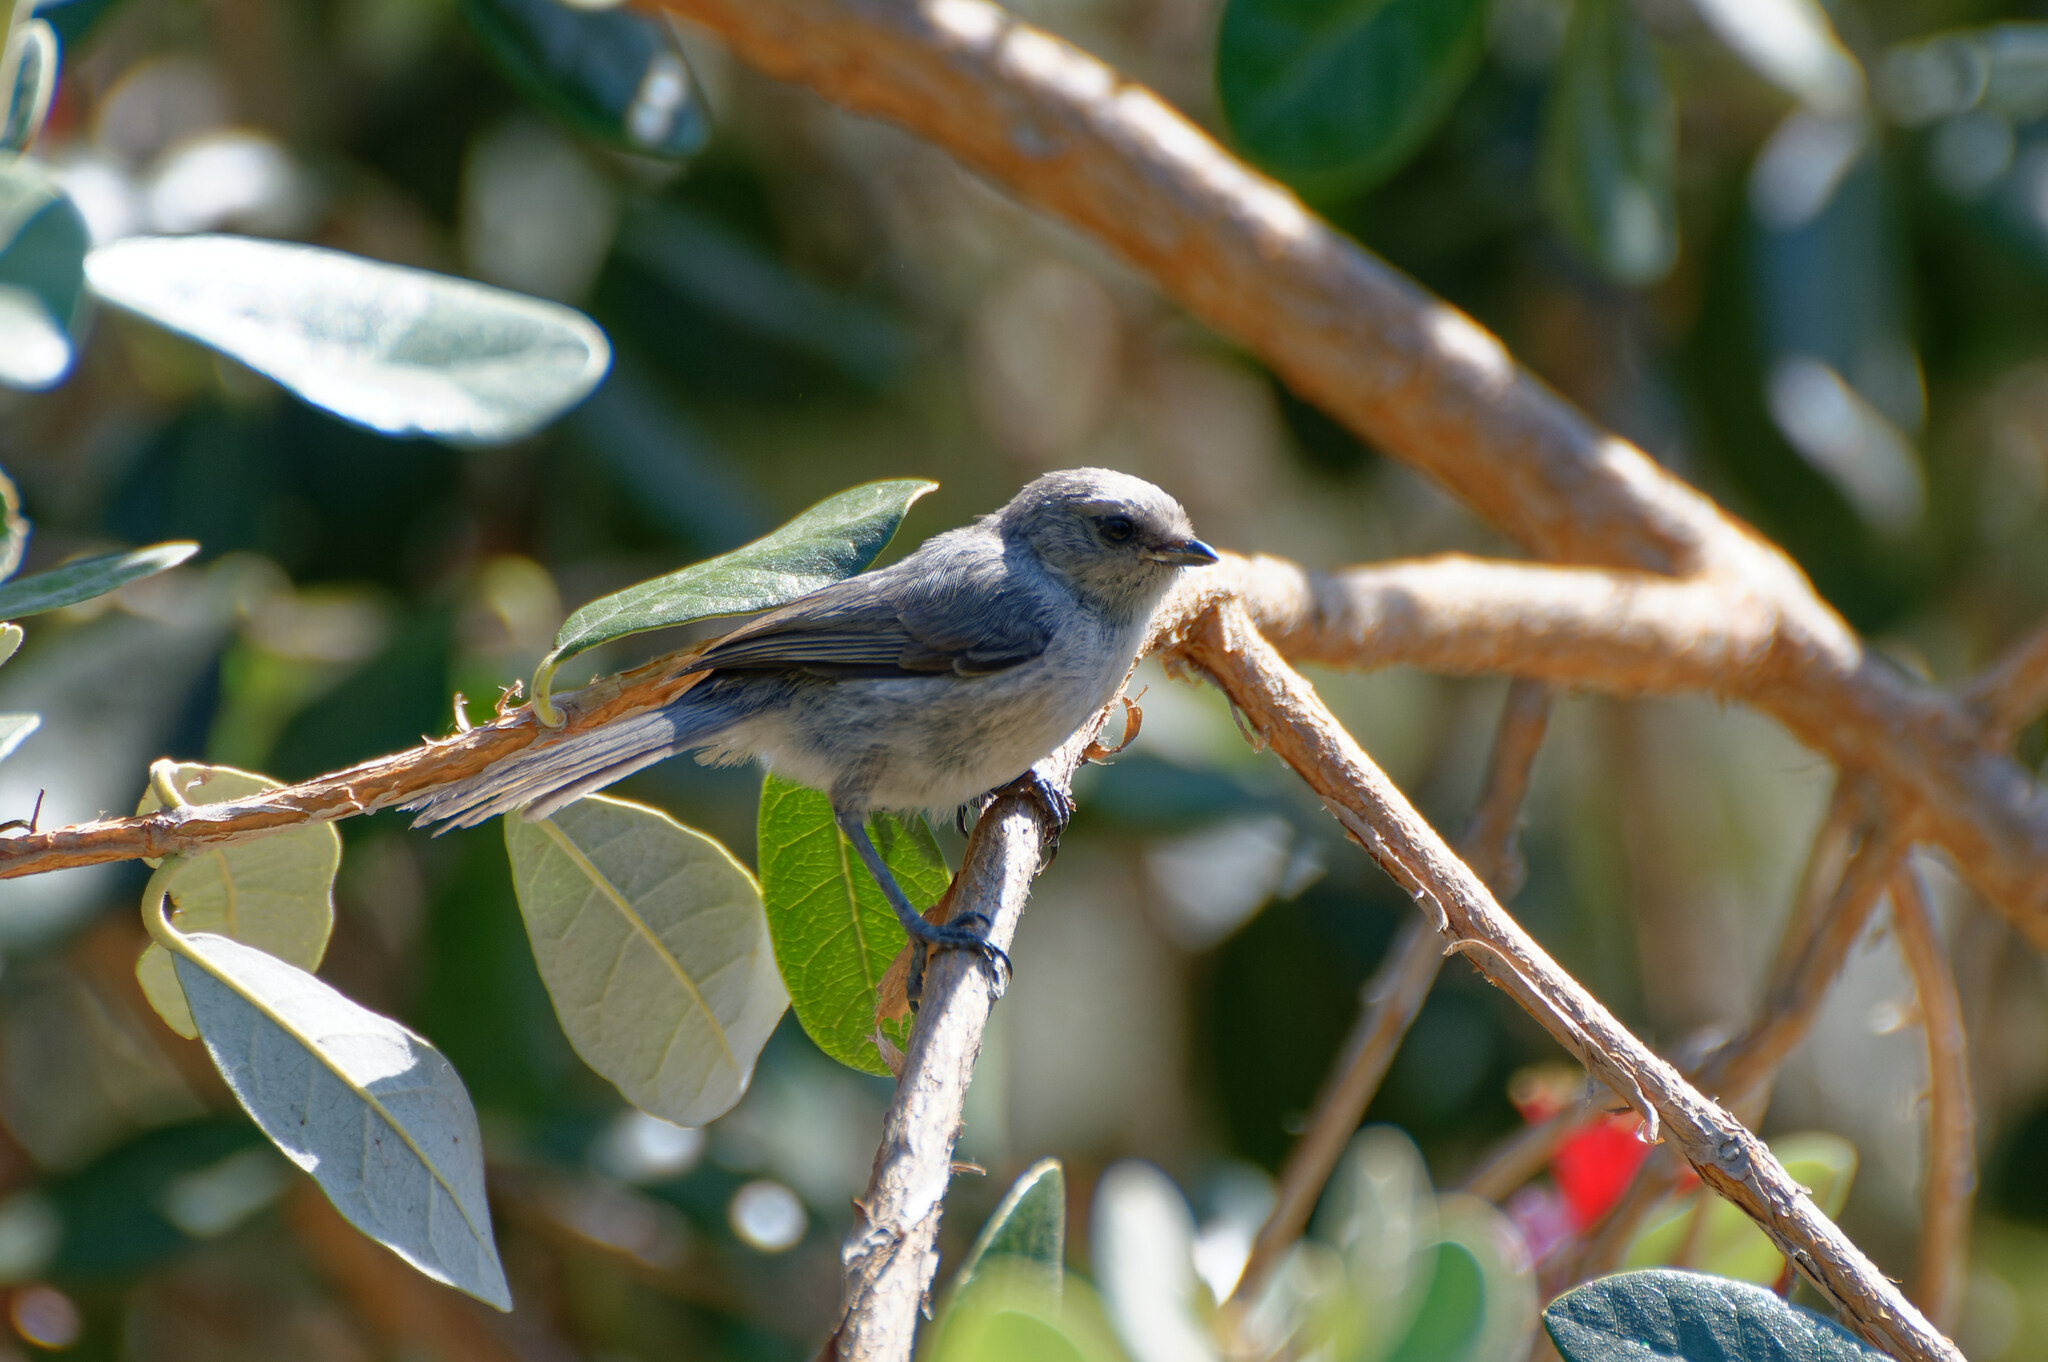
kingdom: Animalia
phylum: Chordata
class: Aves
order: Passeriformes
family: Aegithalidae
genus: Psaltriparus
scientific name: Psaltriparus minimus
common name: American bushtit
